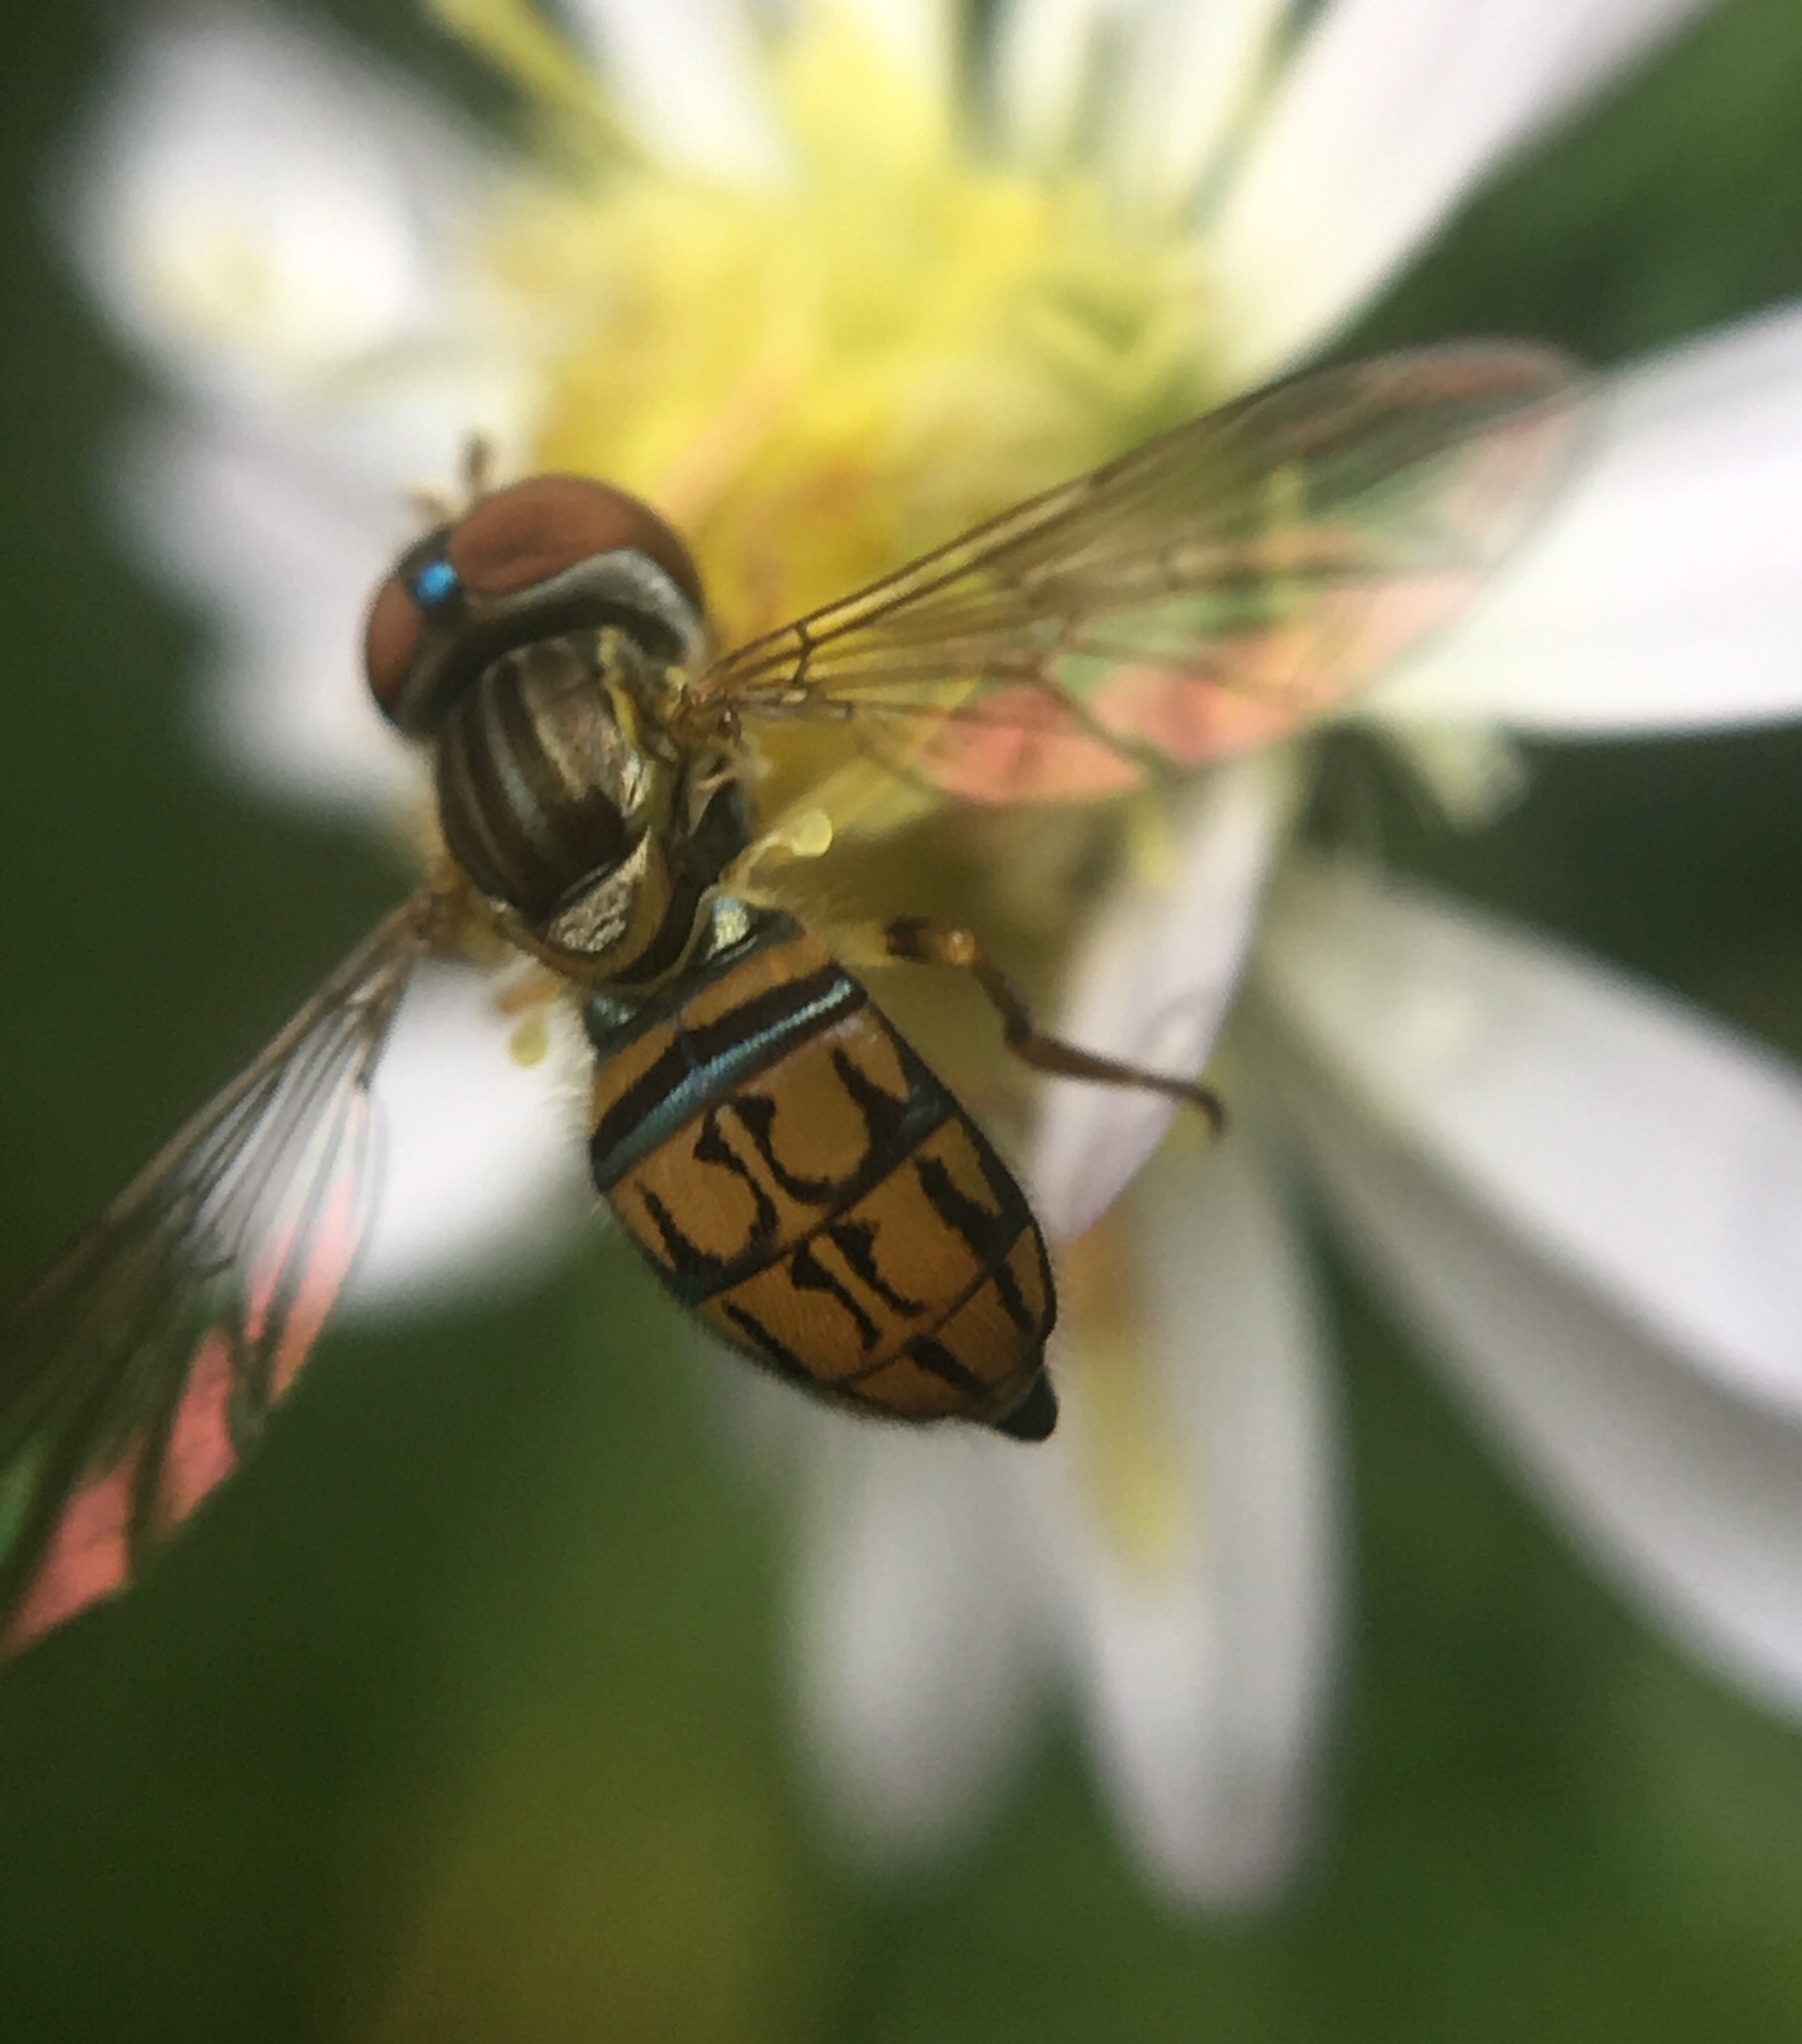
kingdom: Animalia
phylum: Arthropoda
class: Insecta
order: Diptera
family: Syrphidae
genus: Toxomerus
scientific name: Toxomerus boscii
